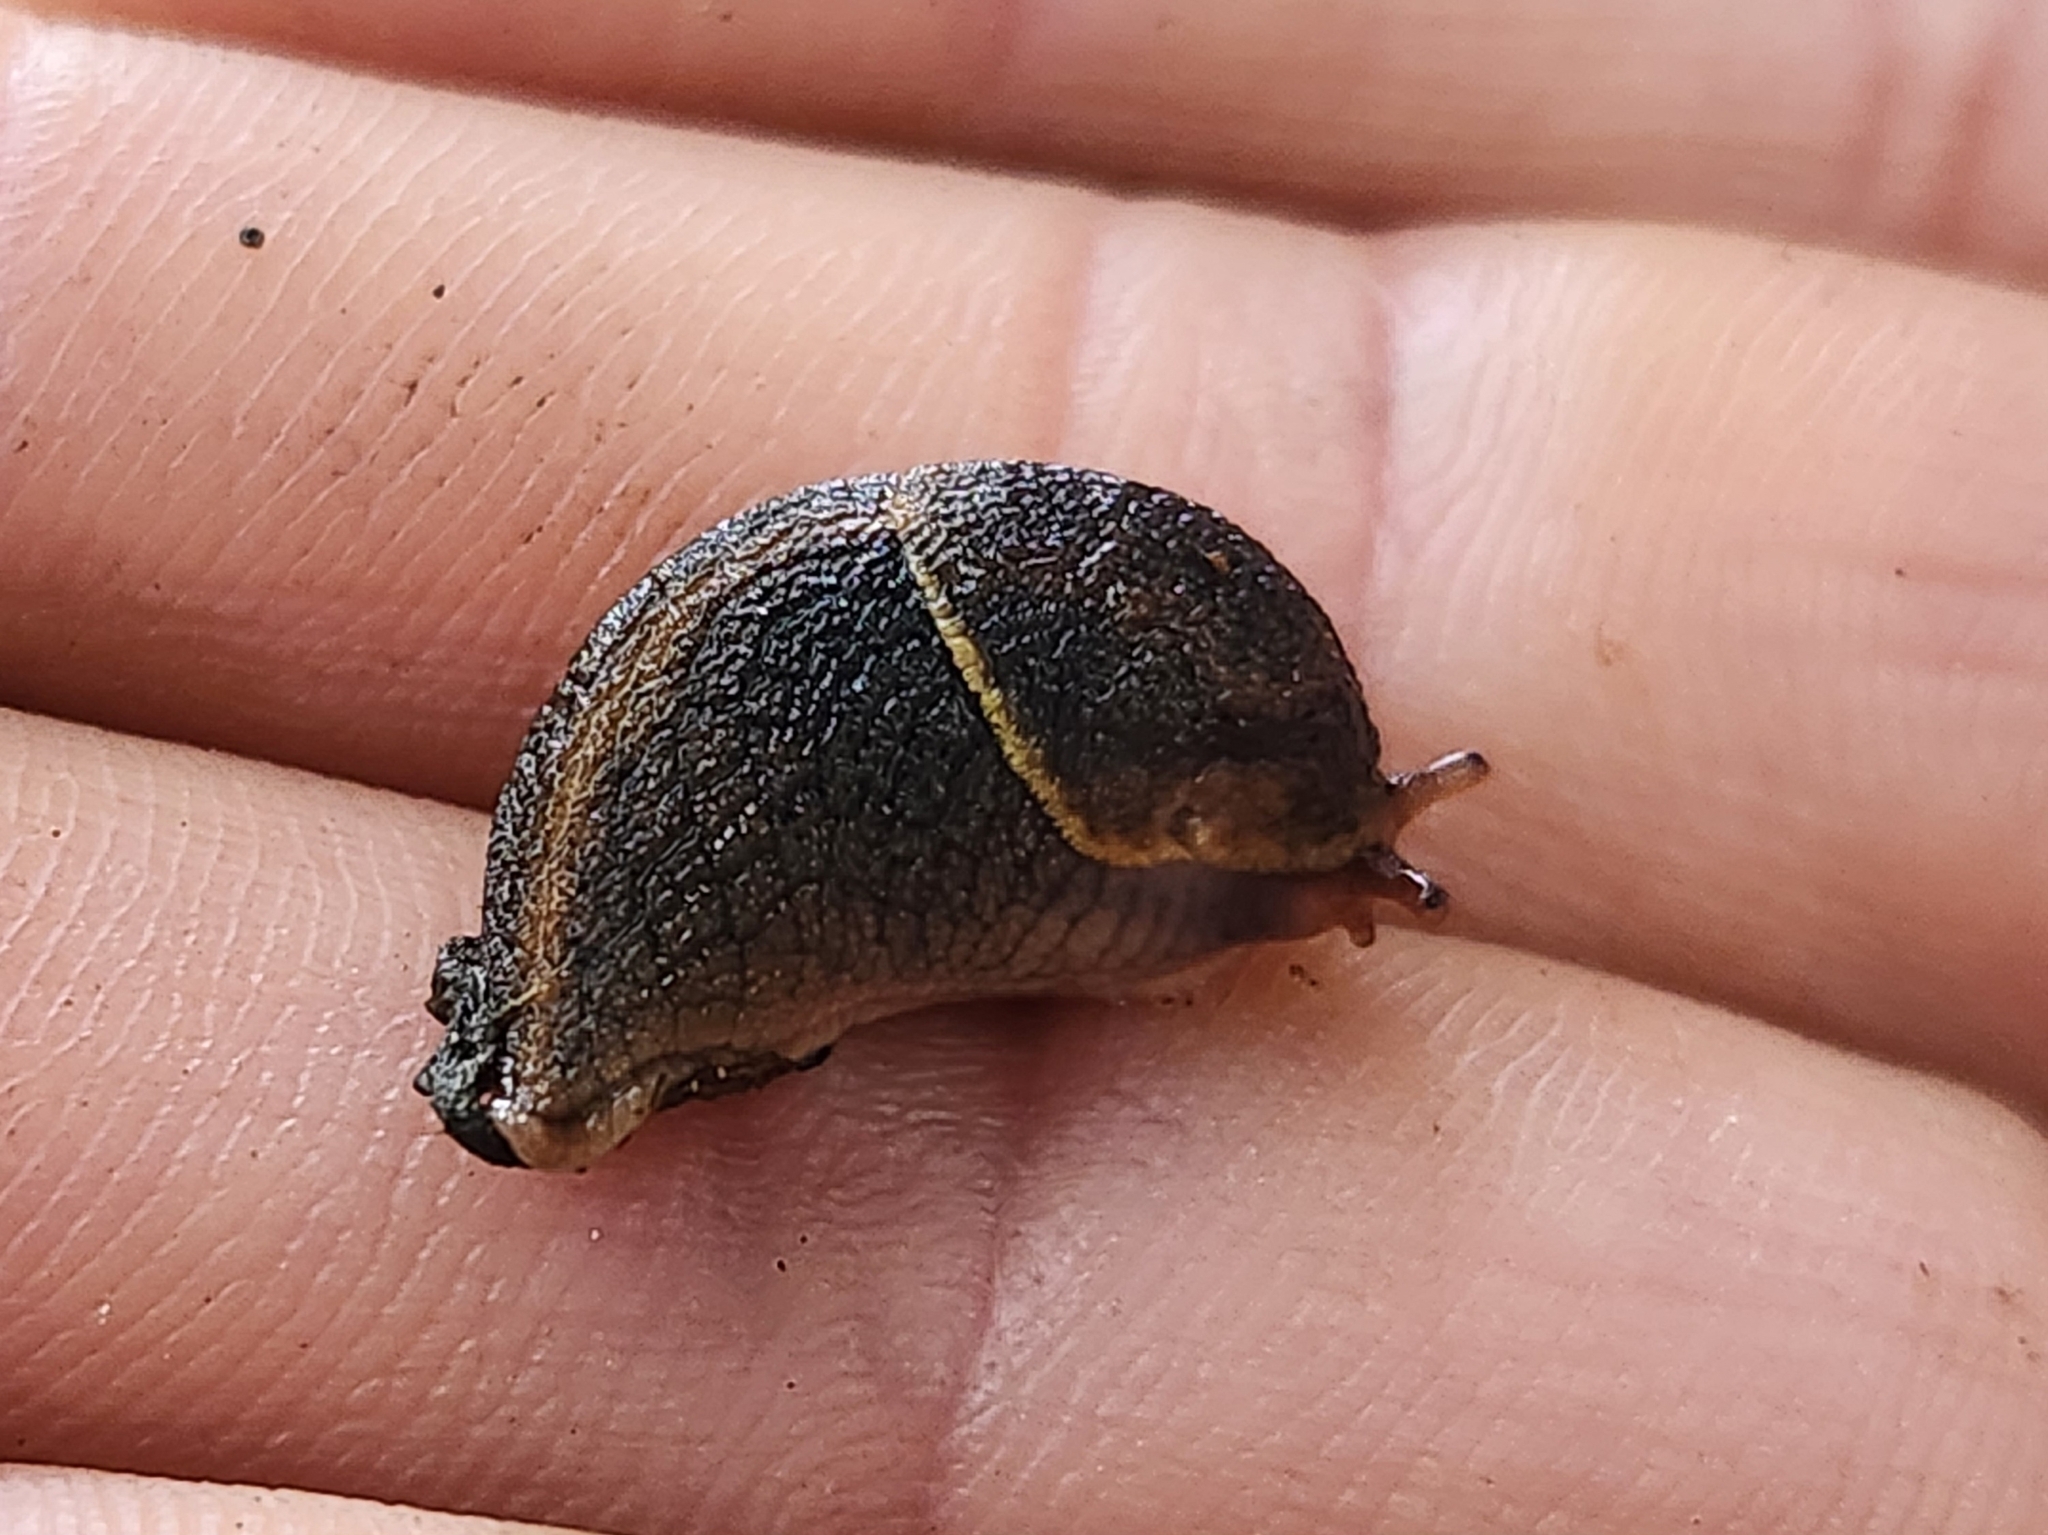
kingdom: Animalia
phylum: Mollusca
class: Gastropoda
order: Stylommatophora
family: Ariolimacidae
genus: Prophysaon
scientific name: Prophysaon andersonii
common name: Reticulate taildropper
